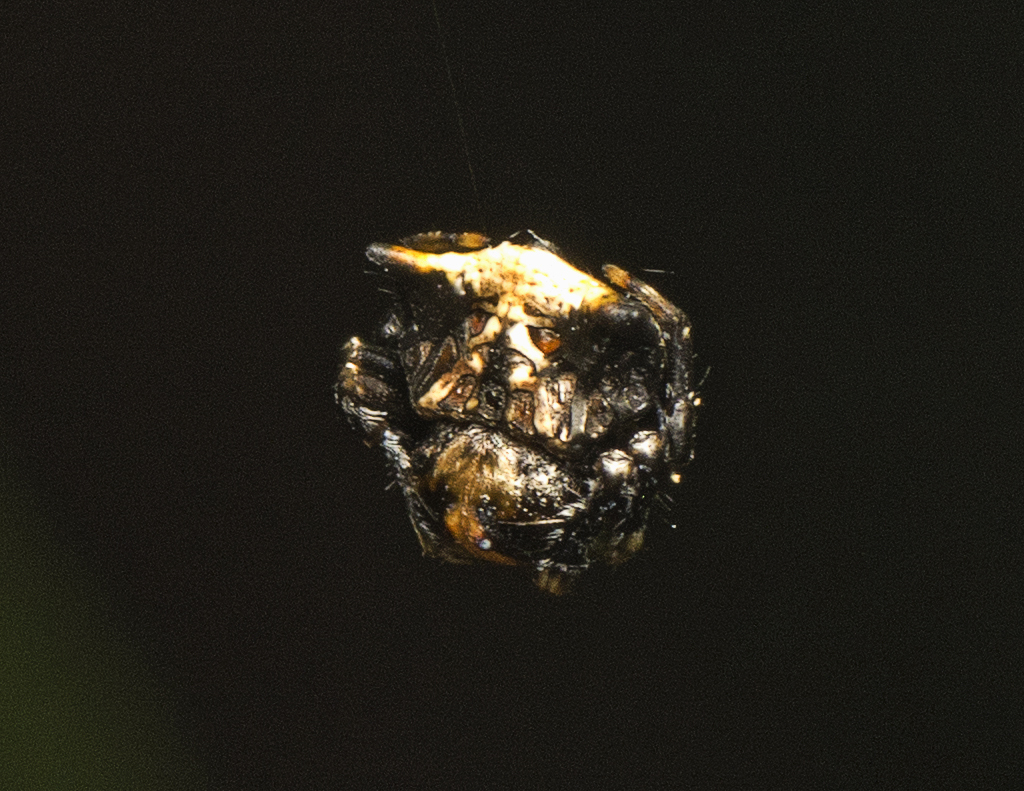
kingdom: Animalia
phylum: Arthropoda
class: Arachnida
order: Araneae
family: Arkyidae
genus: Arkys
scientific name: Arkys curtulus
